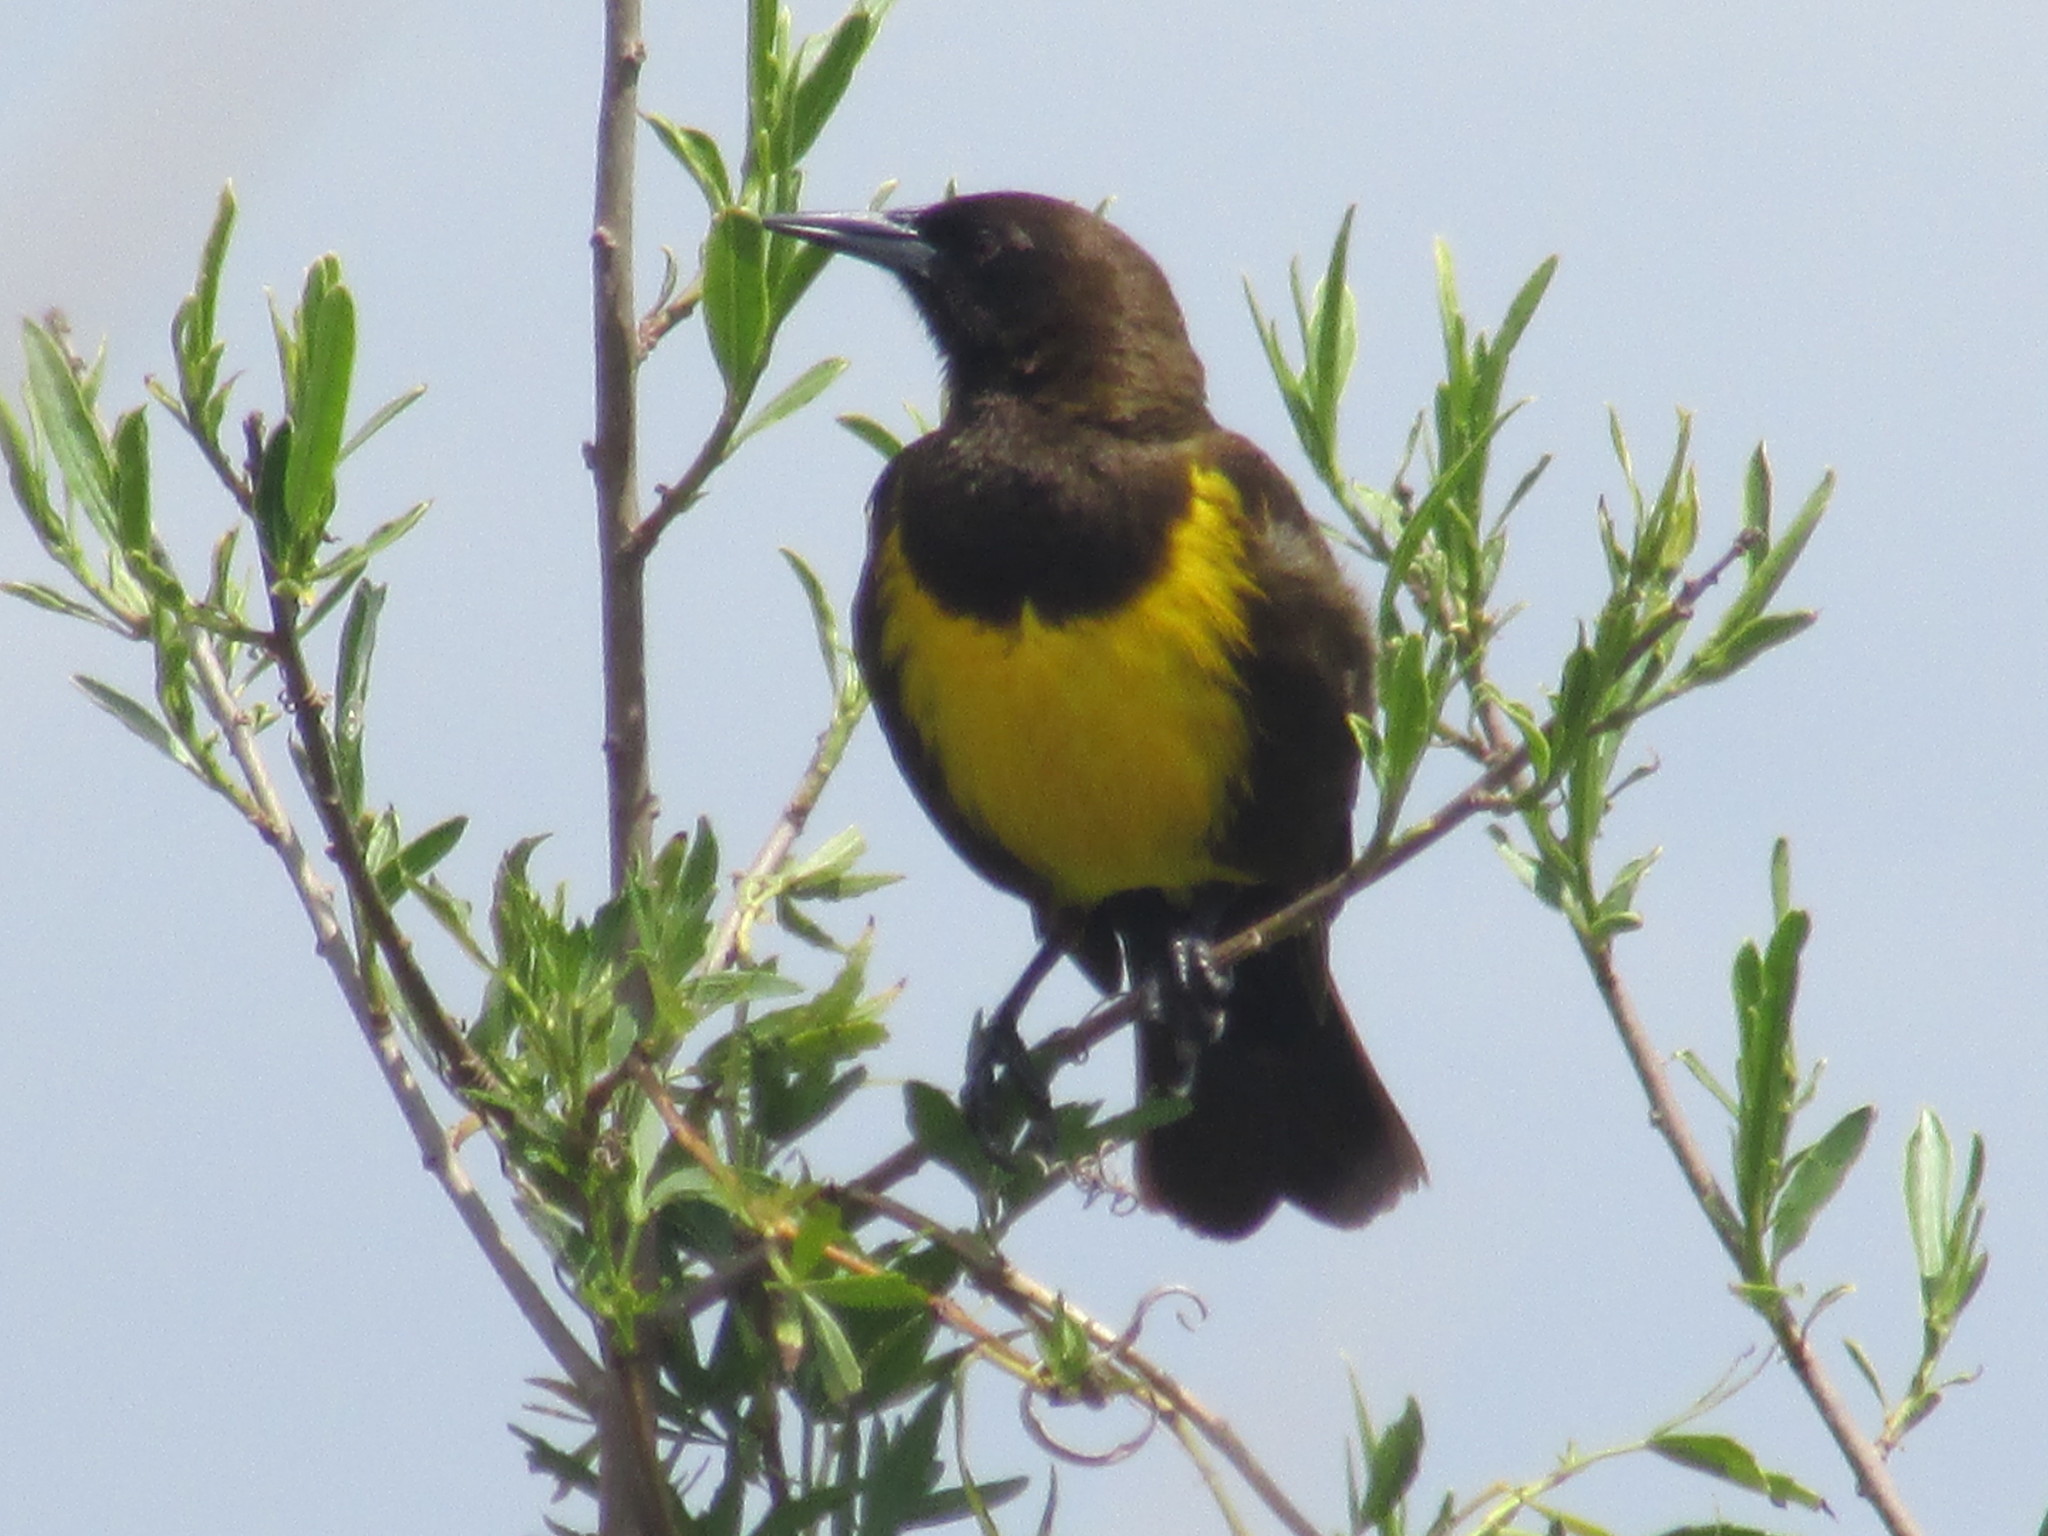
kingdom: Animalia
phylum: Chordata
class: Aves
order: Passeriformes
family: Icteridae
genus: Pseudoleistes
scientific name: Pseudoleistes virescens
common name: Brown-and-yellow marshbird
